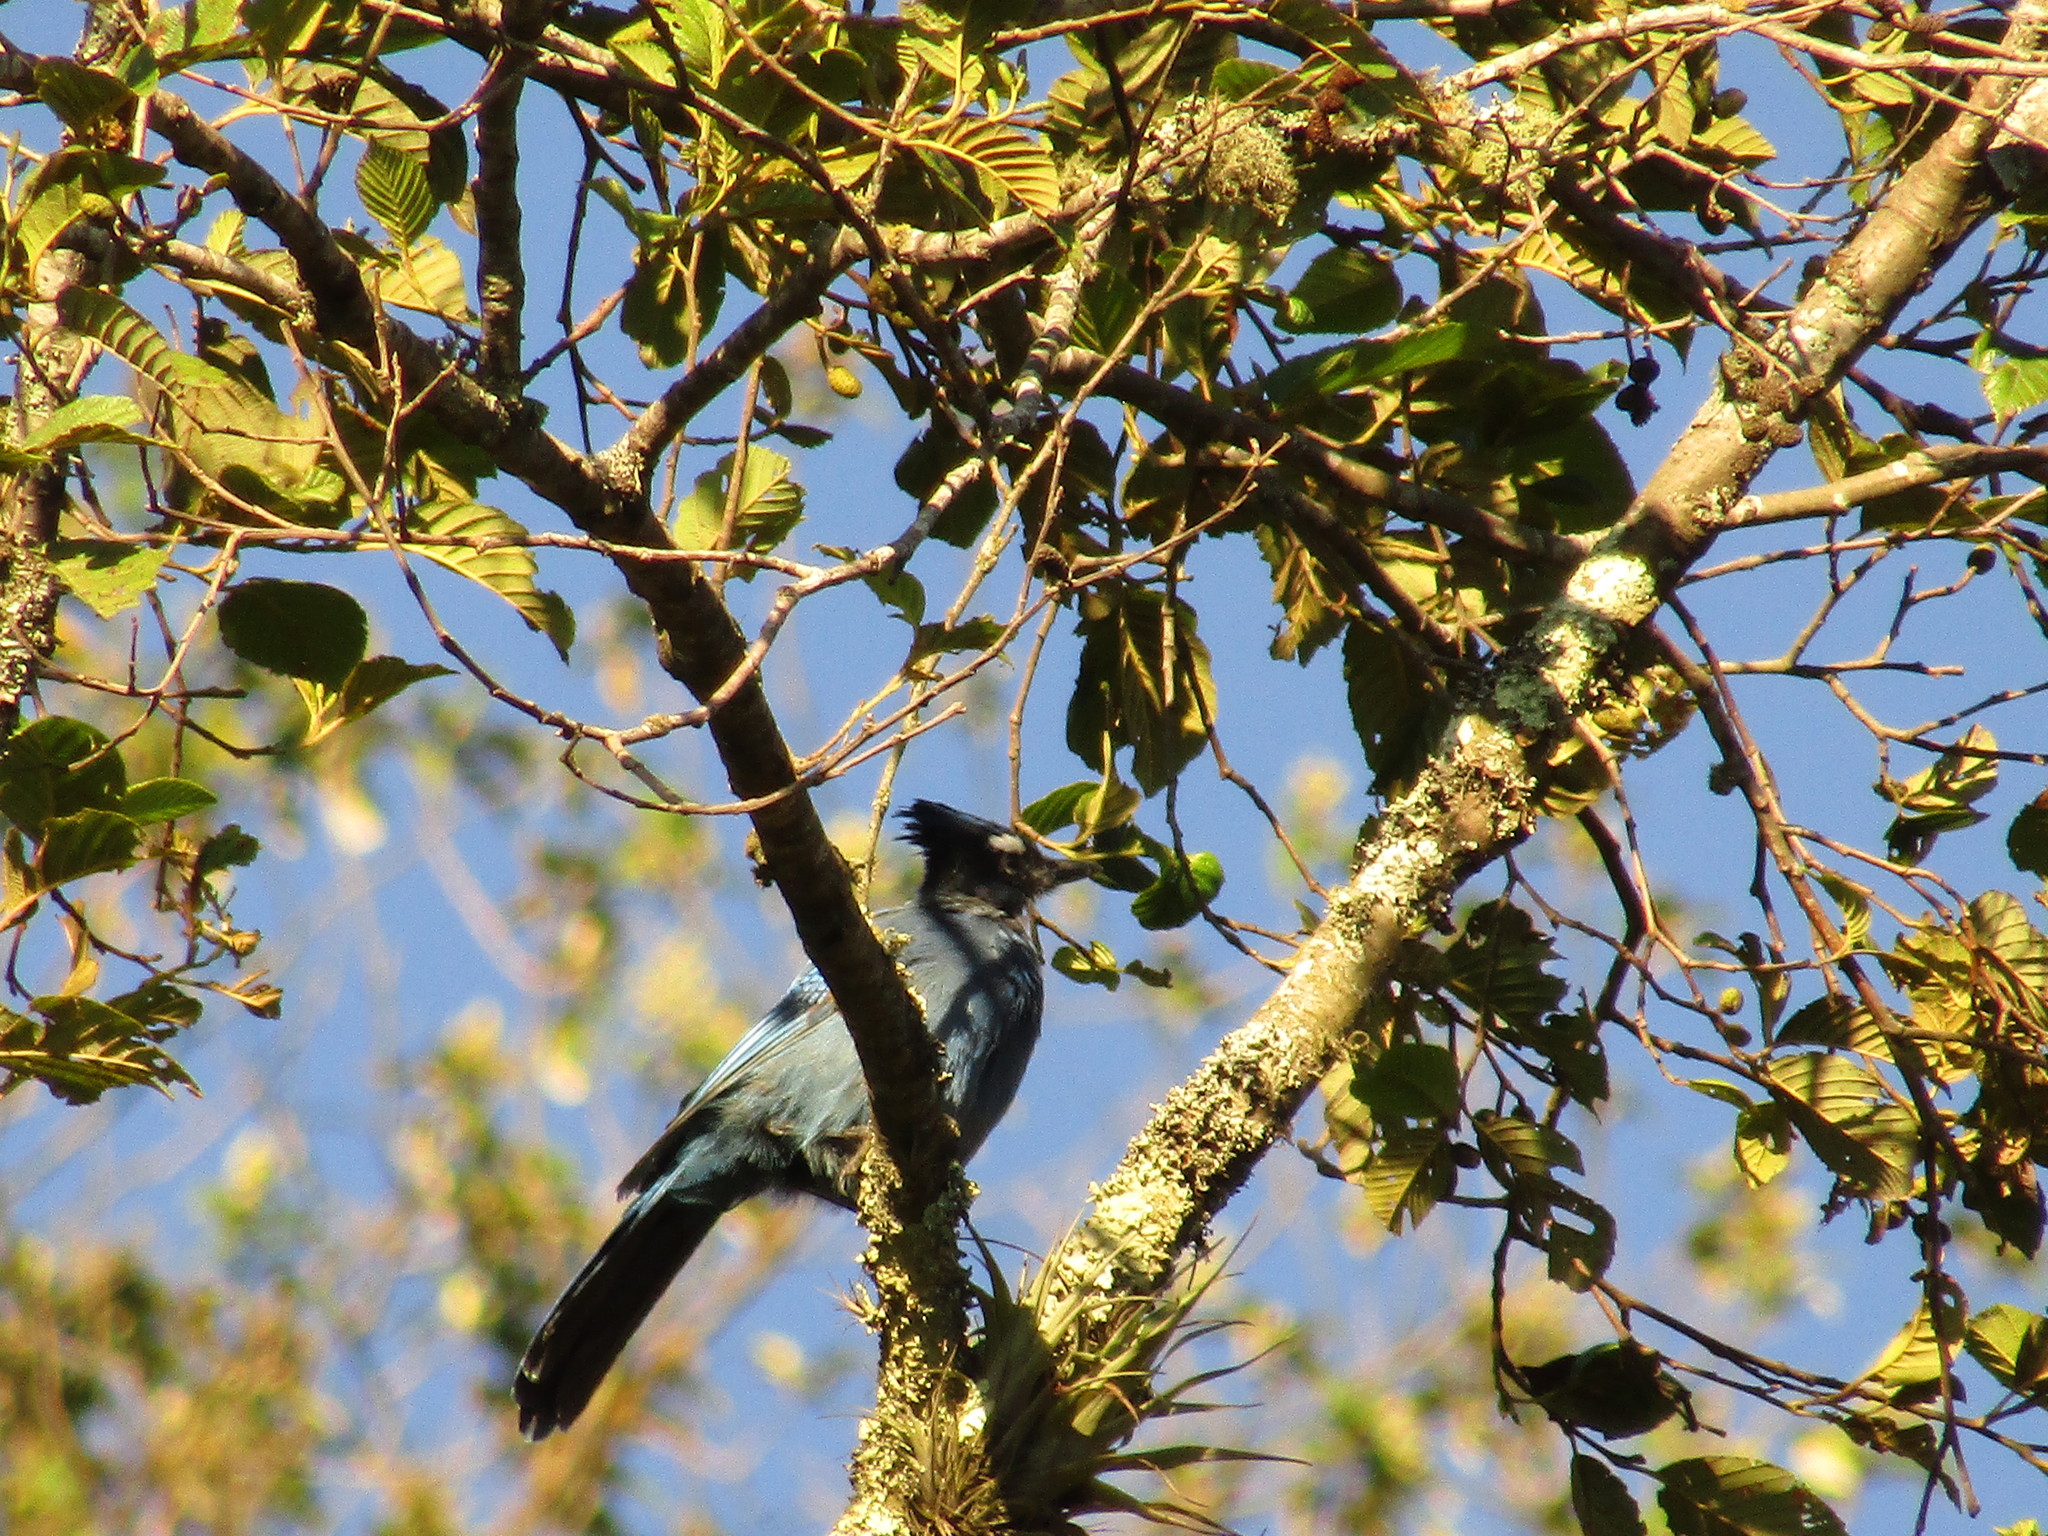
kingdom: Animalia
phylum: Chordata
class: Aves
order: Passeriformes
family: Corvidae
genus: Cyanocitta
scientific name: Cyanocitta stelleri
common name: Steller's jay
